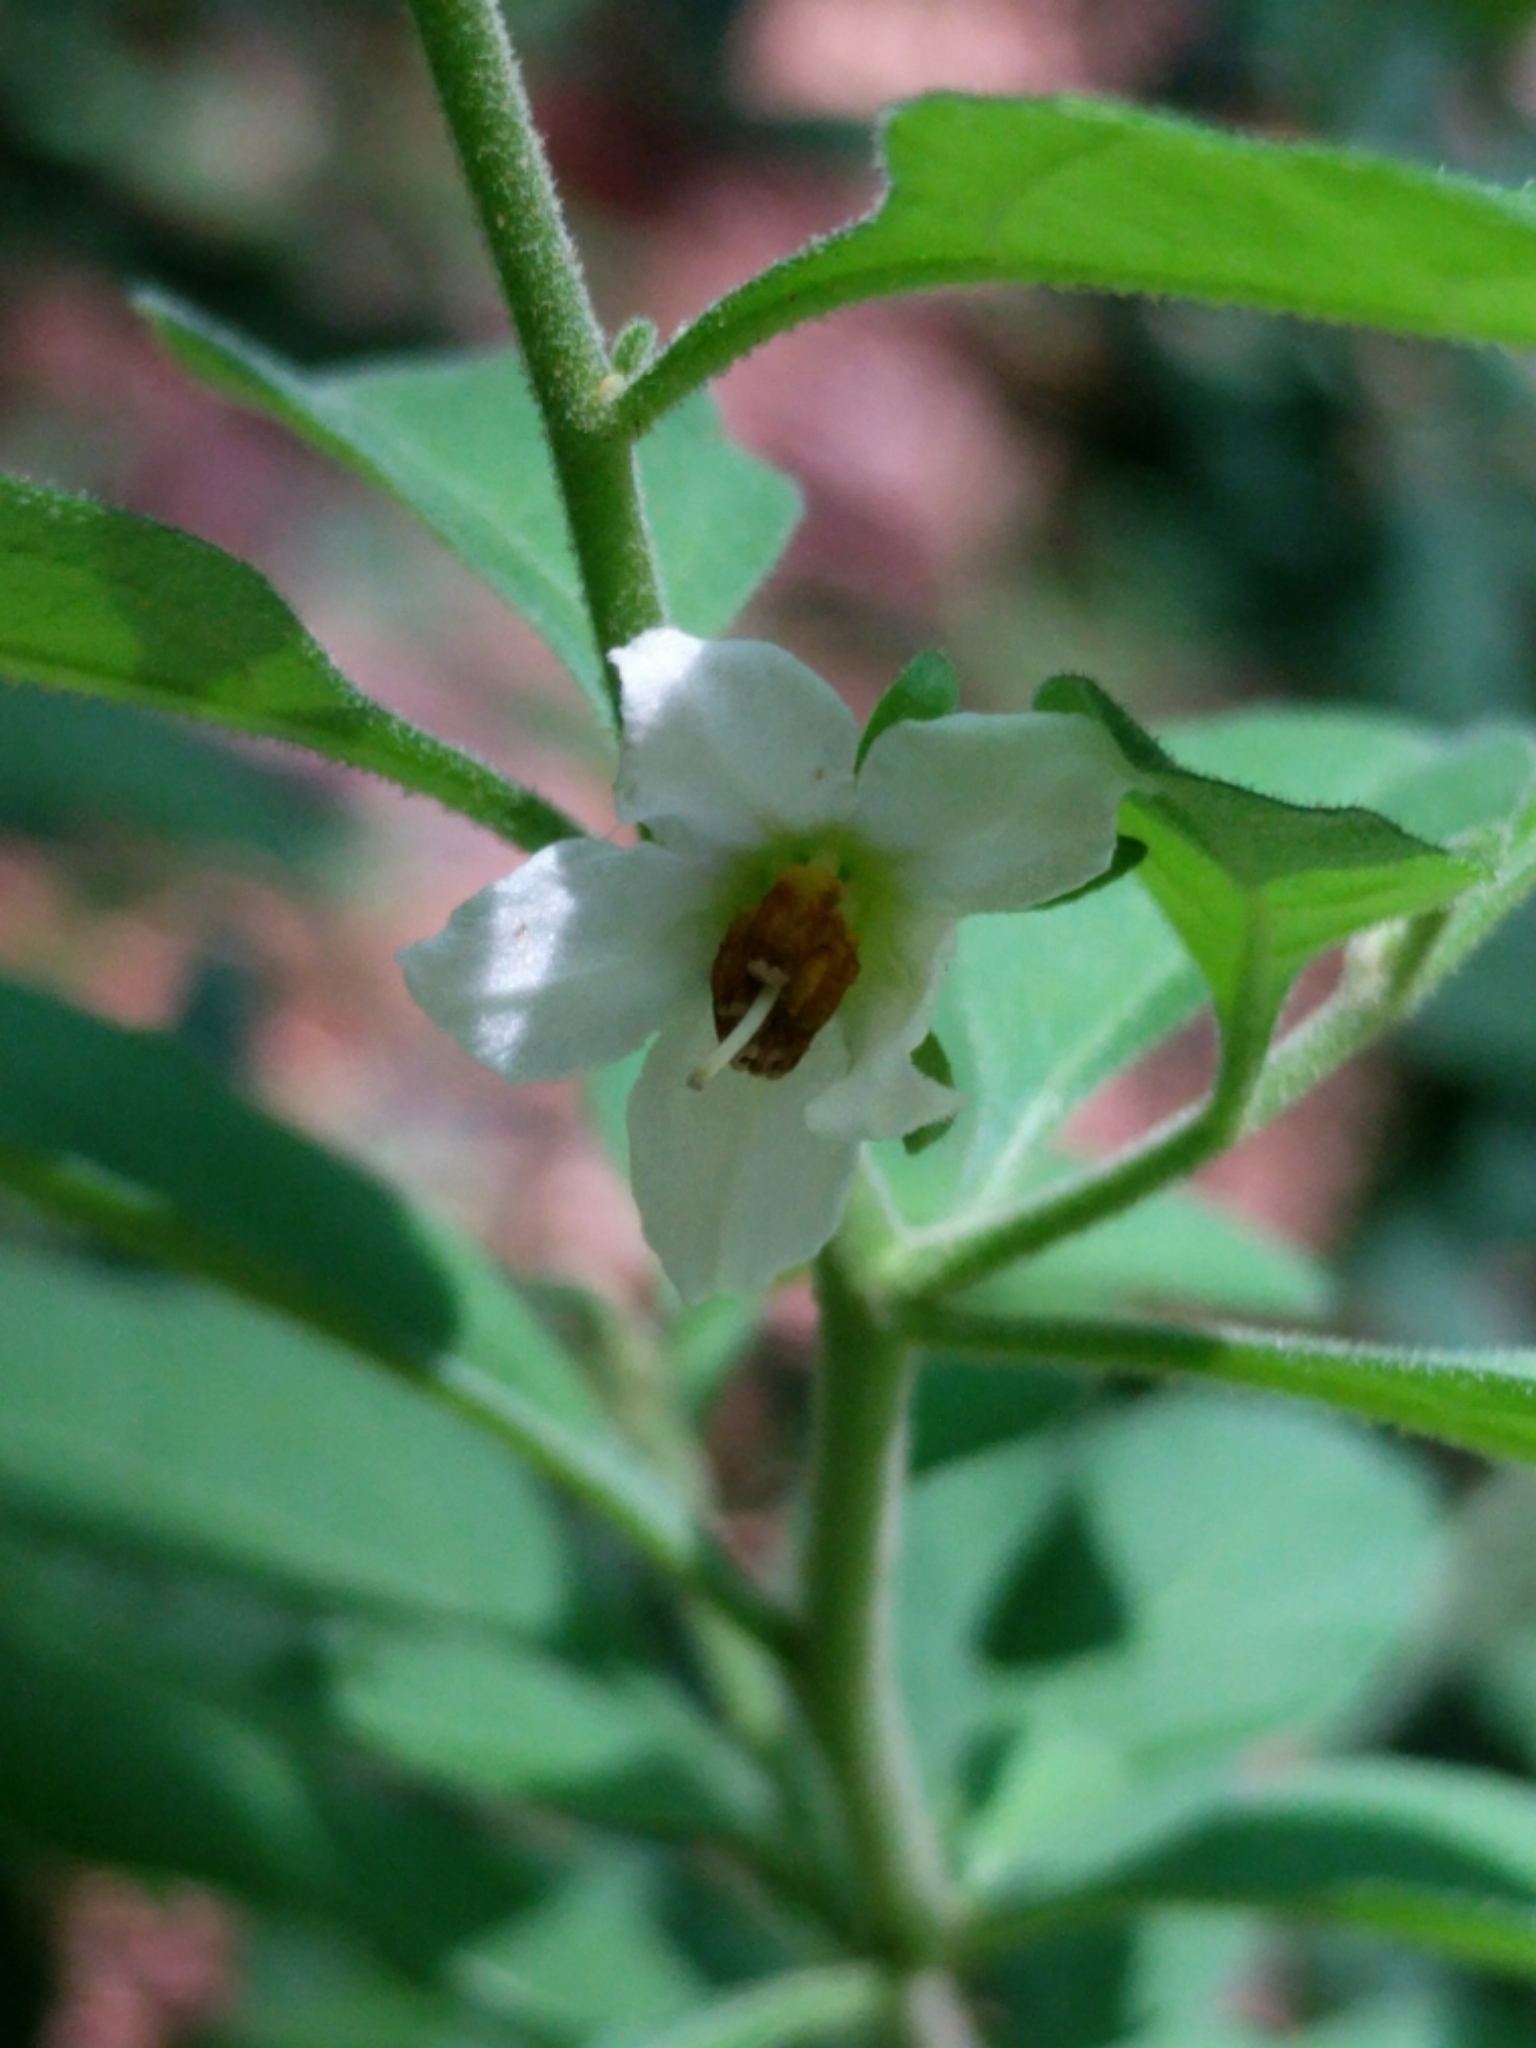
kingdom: Plantae
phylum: Tracheophyta
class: Magnoliopsida
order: Solanales
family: Solanaceae
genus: Solanum
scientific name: Solanum pseudocapsicum
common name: Jerusalem cherry
